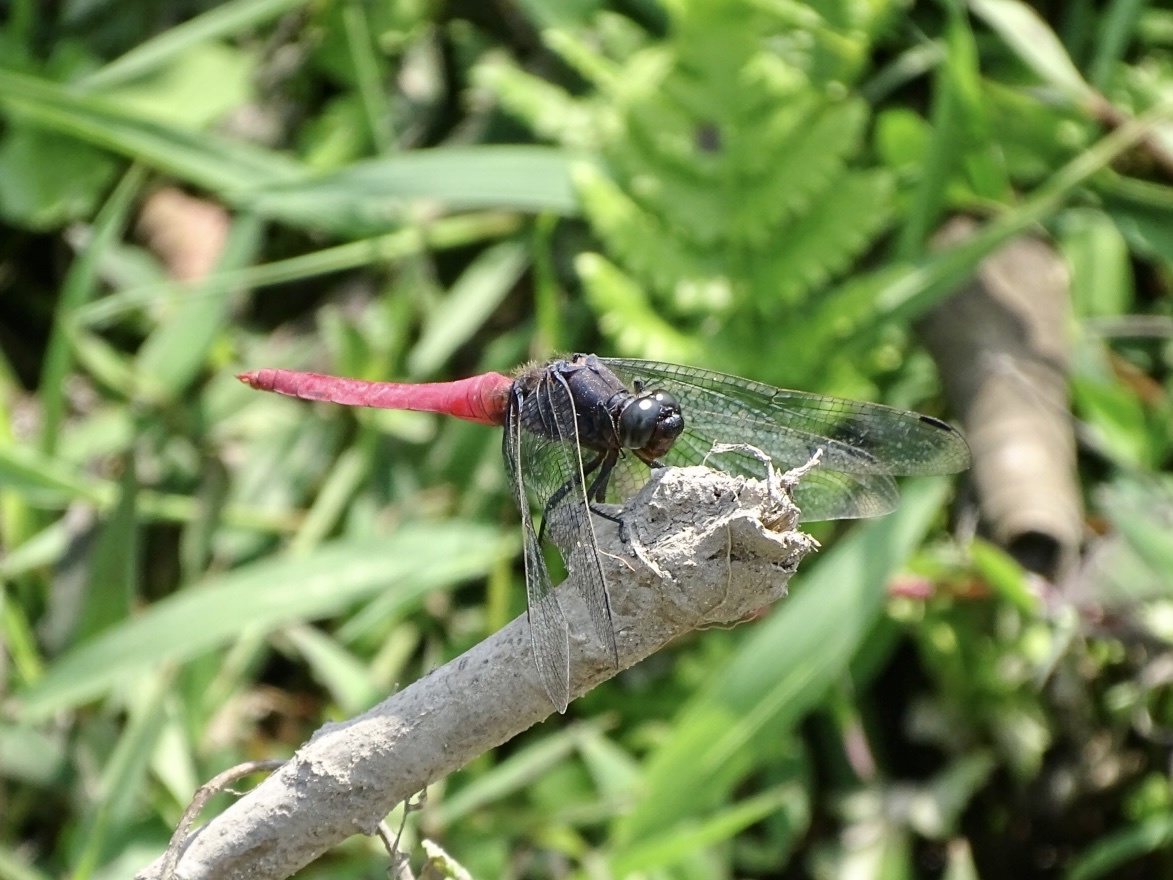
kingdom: Animalia
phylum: Arthropoda
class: Insecta
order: Odonata
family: Libellulidae
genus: Orthetrum
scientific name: Orthetrum pruinosum
